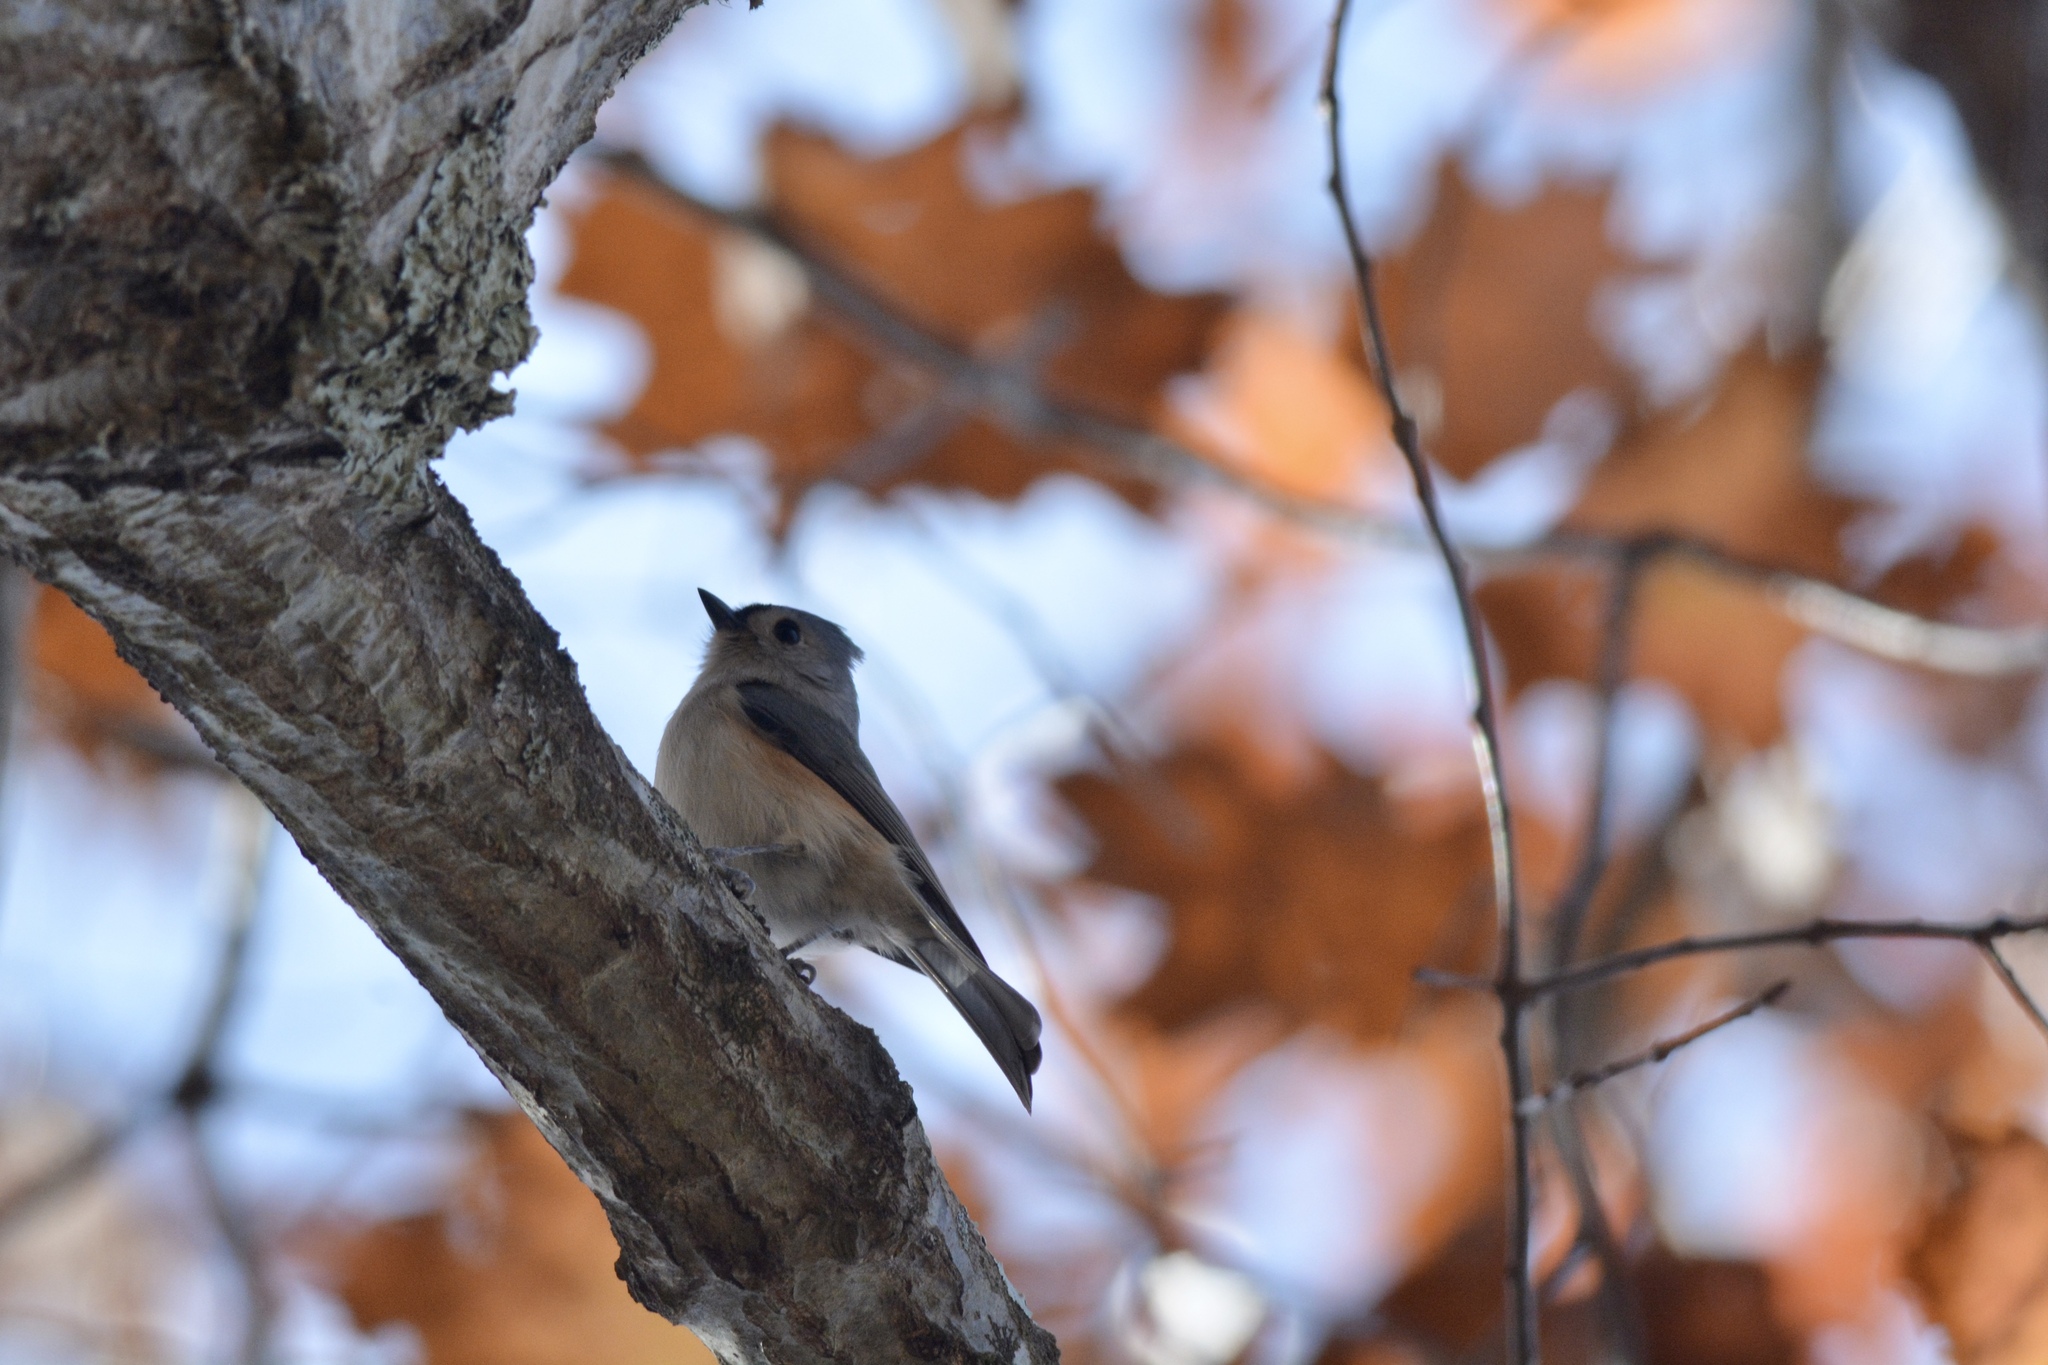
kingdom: Animalia
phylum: Chordata
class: Aves
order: Passeriformes
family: Paridae
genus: Baeolophus
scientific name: Baeolophus bicolor
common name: Tufted titmouse
